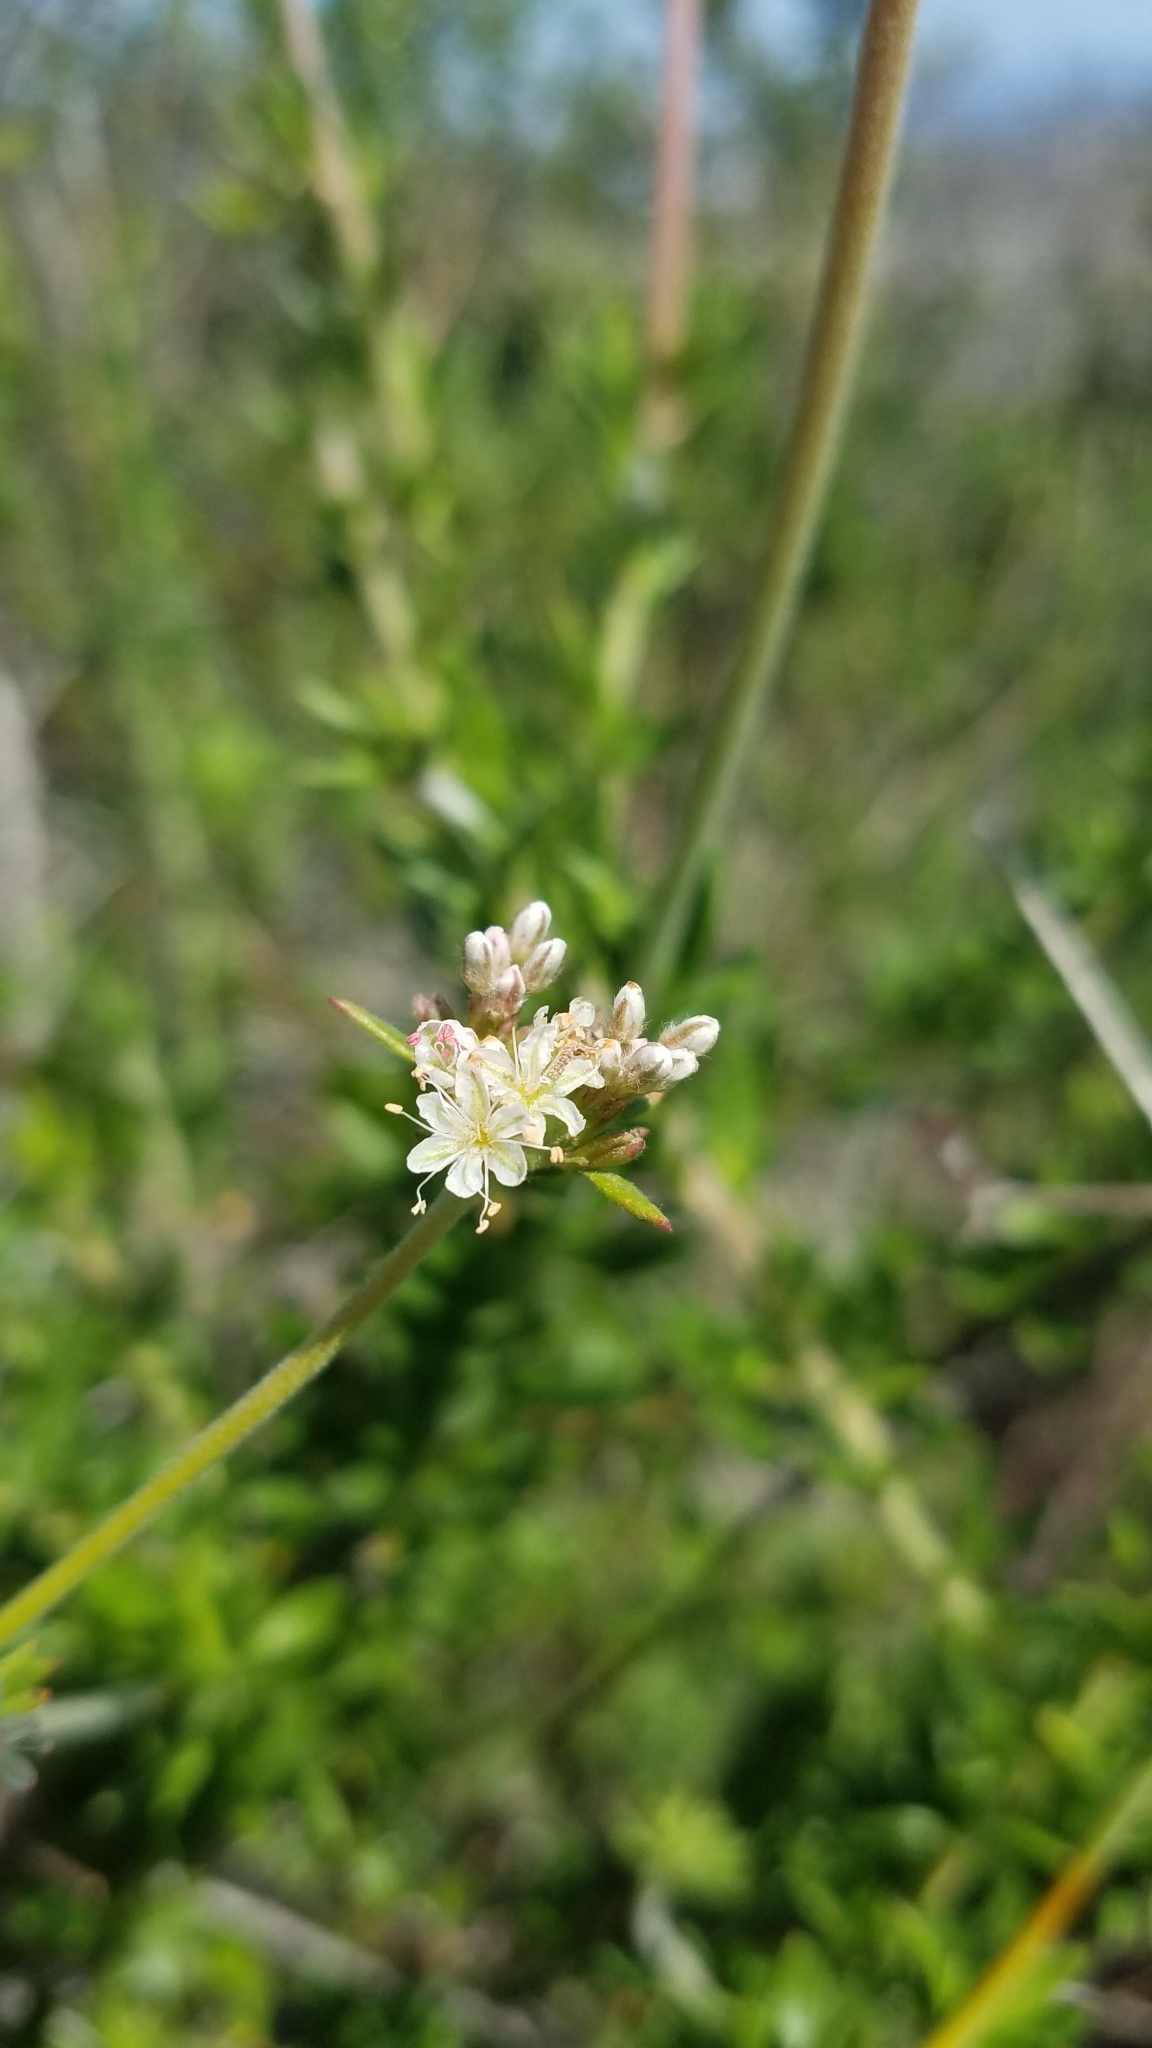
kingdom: Plantae
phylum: Tracheophyta
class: Magnoliopsida
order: Caryophyllales
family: Polygonaceae
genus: Eriogonum
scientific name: Eriogonum fasciculatum
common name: California wild buckwheat
